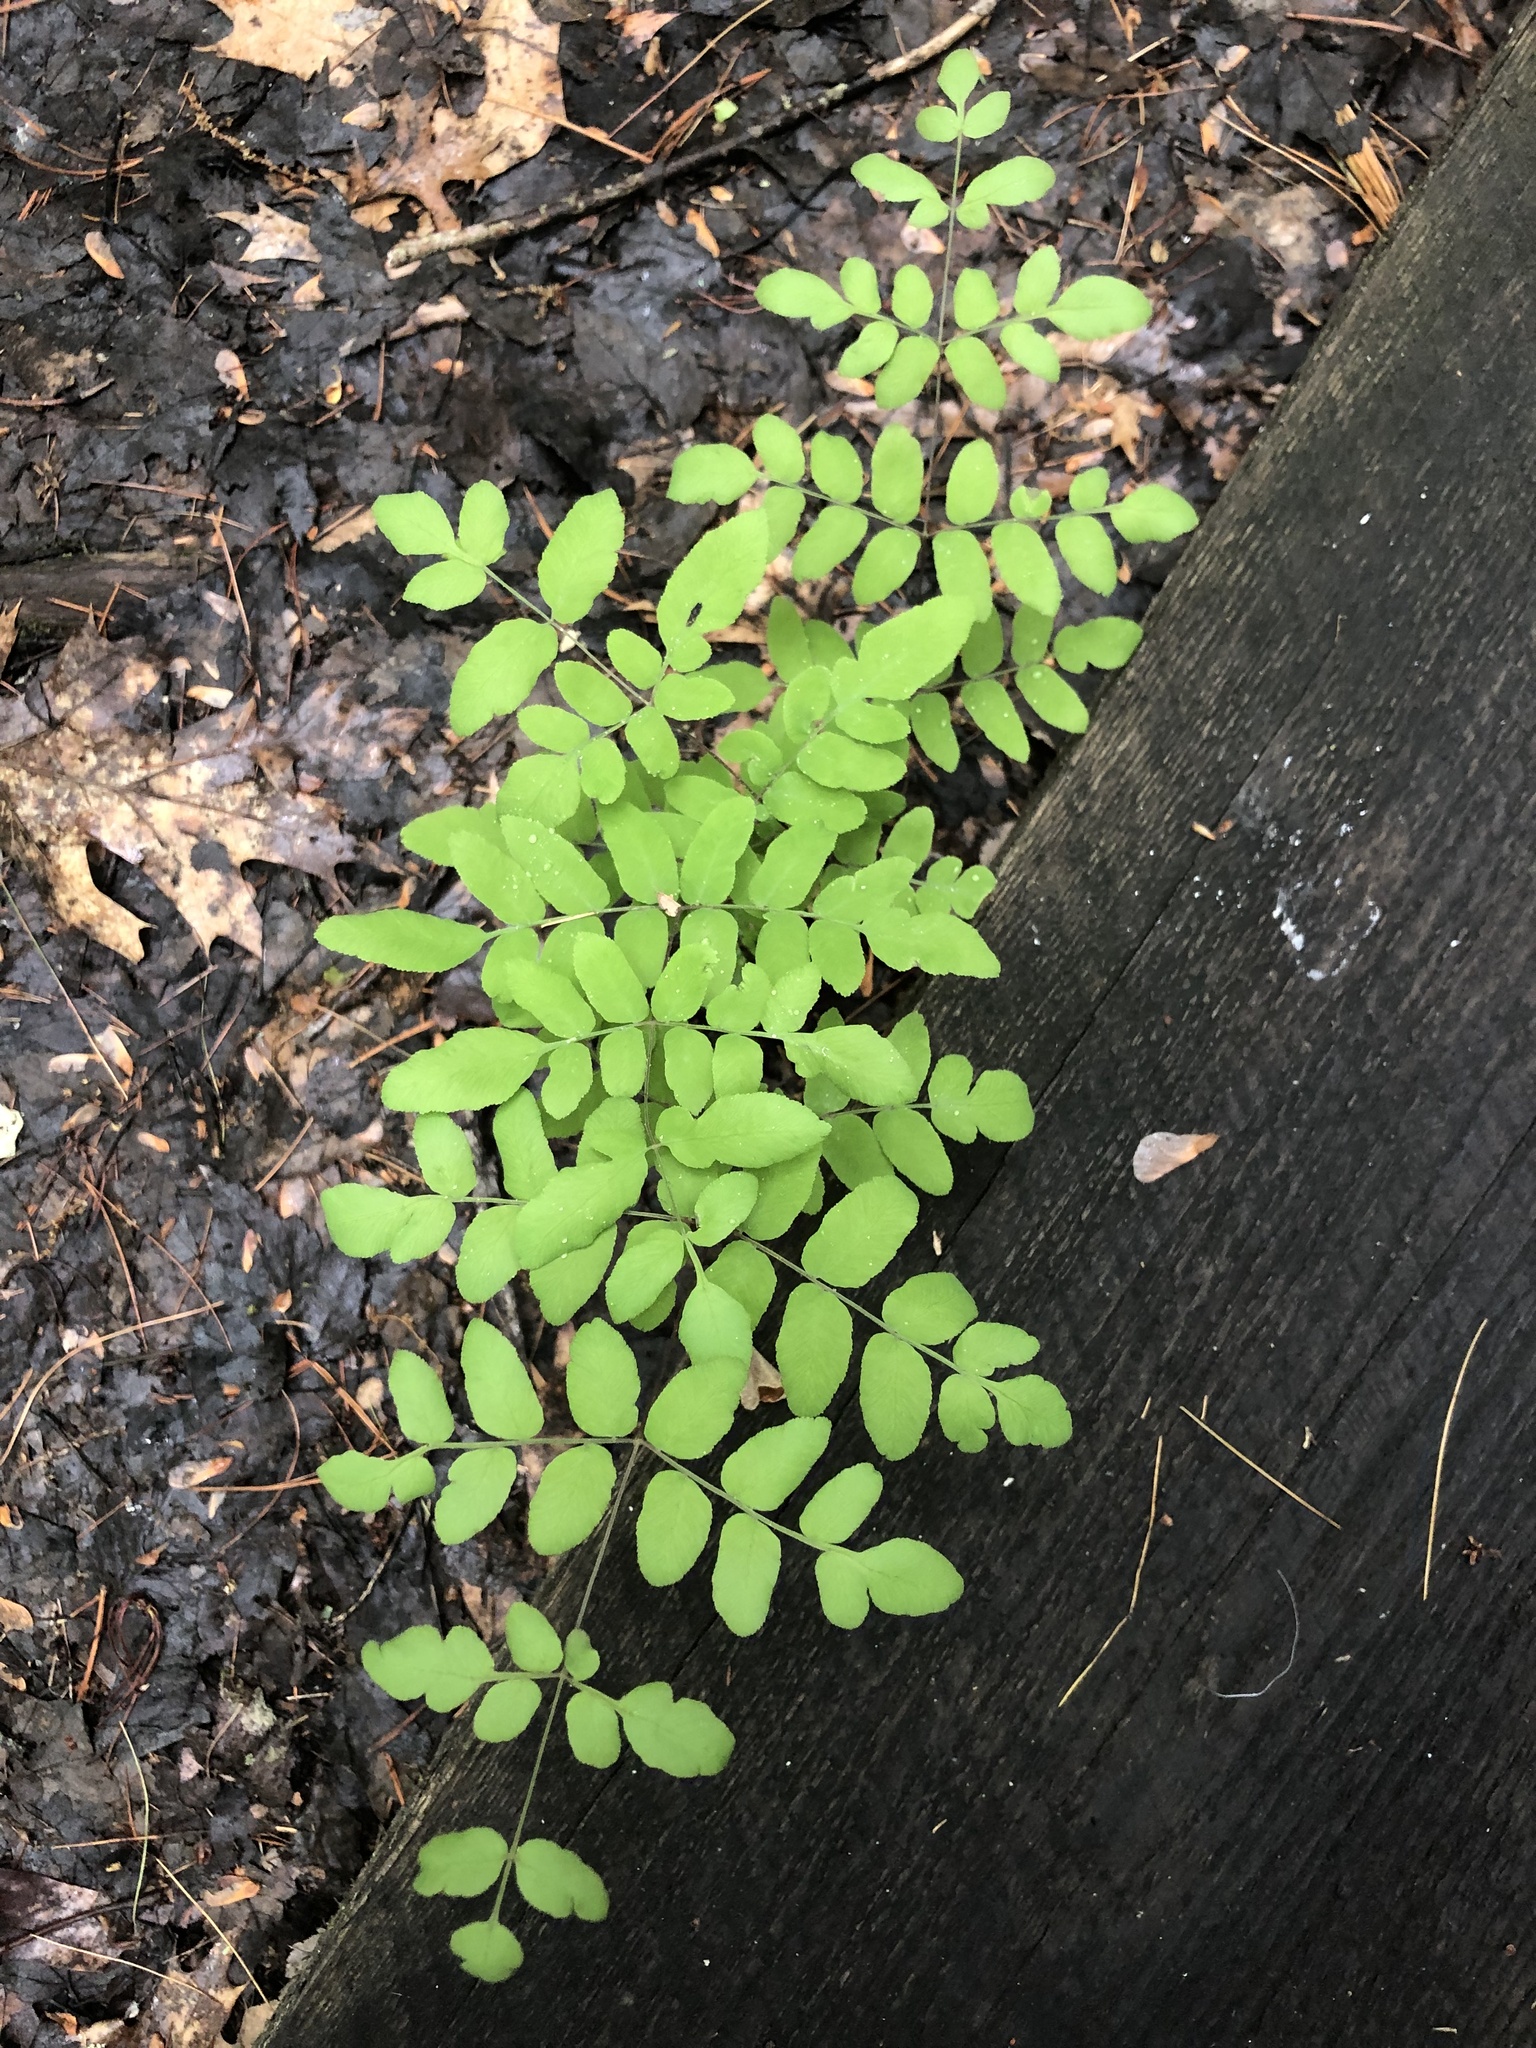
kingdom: Plantae
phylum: Tracheophyta
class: Polypodiopsida
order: Osmundales
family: Osmundaceae
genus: Osmunda
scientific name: Osmunda spectabilis
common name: American royal fern
